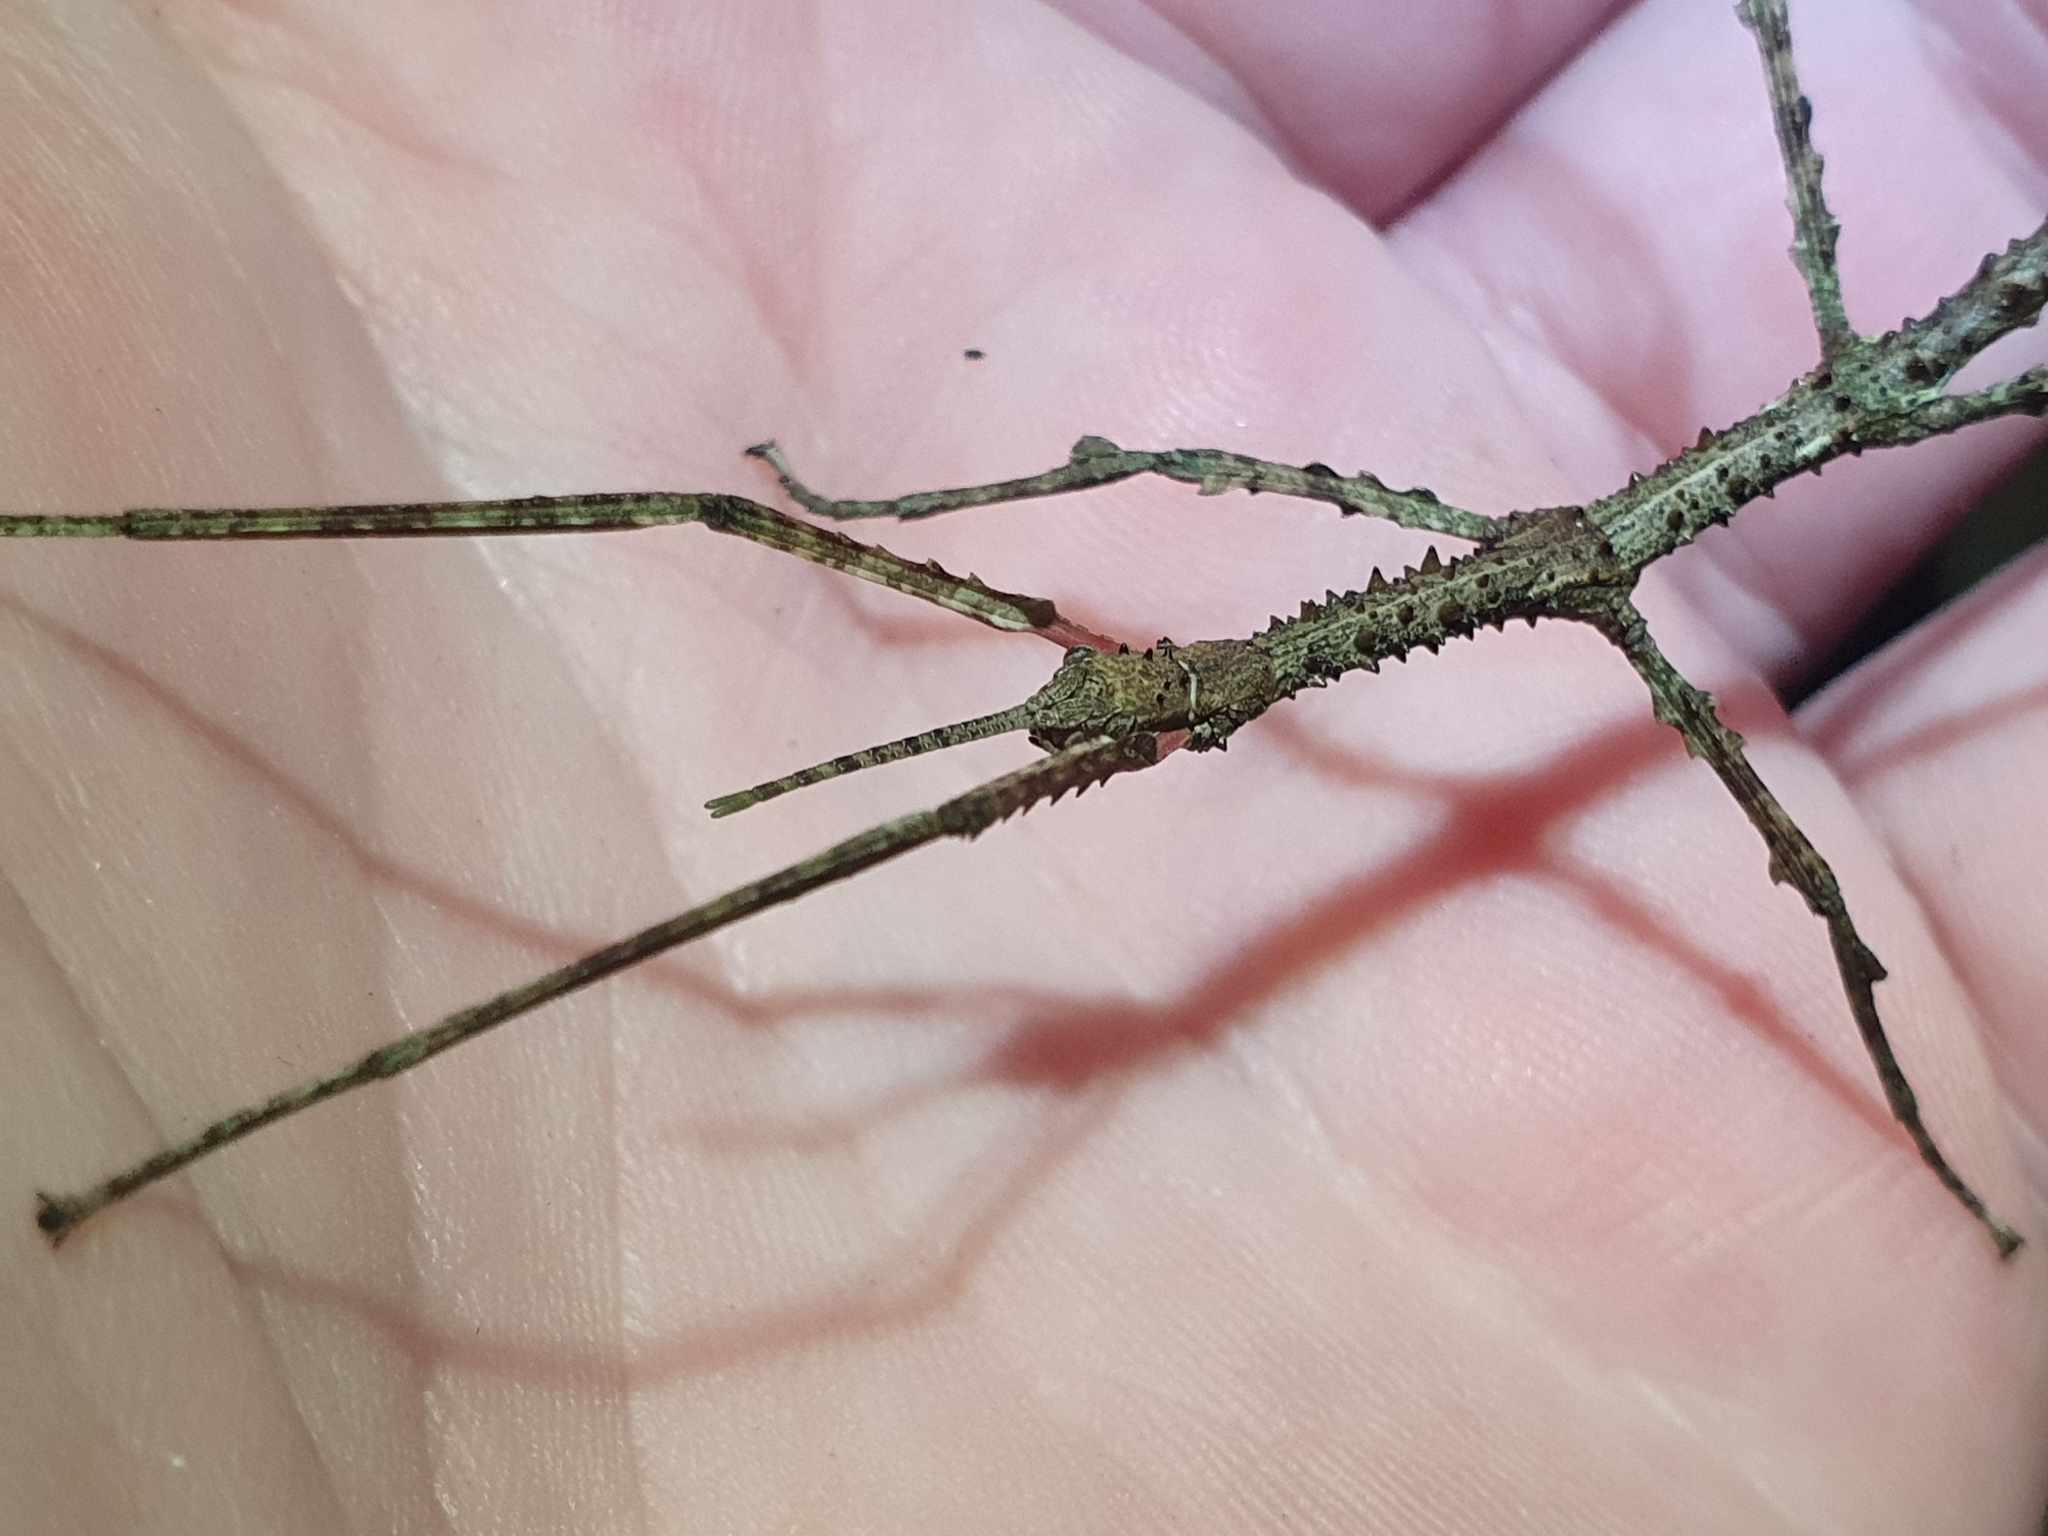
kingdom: Animalia
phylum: Arthropoda
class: Insecta
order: Phasmida
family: Phasmatidae
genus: Argosarchus
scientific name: Argosarchus horridus
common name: Bristly stick insect
